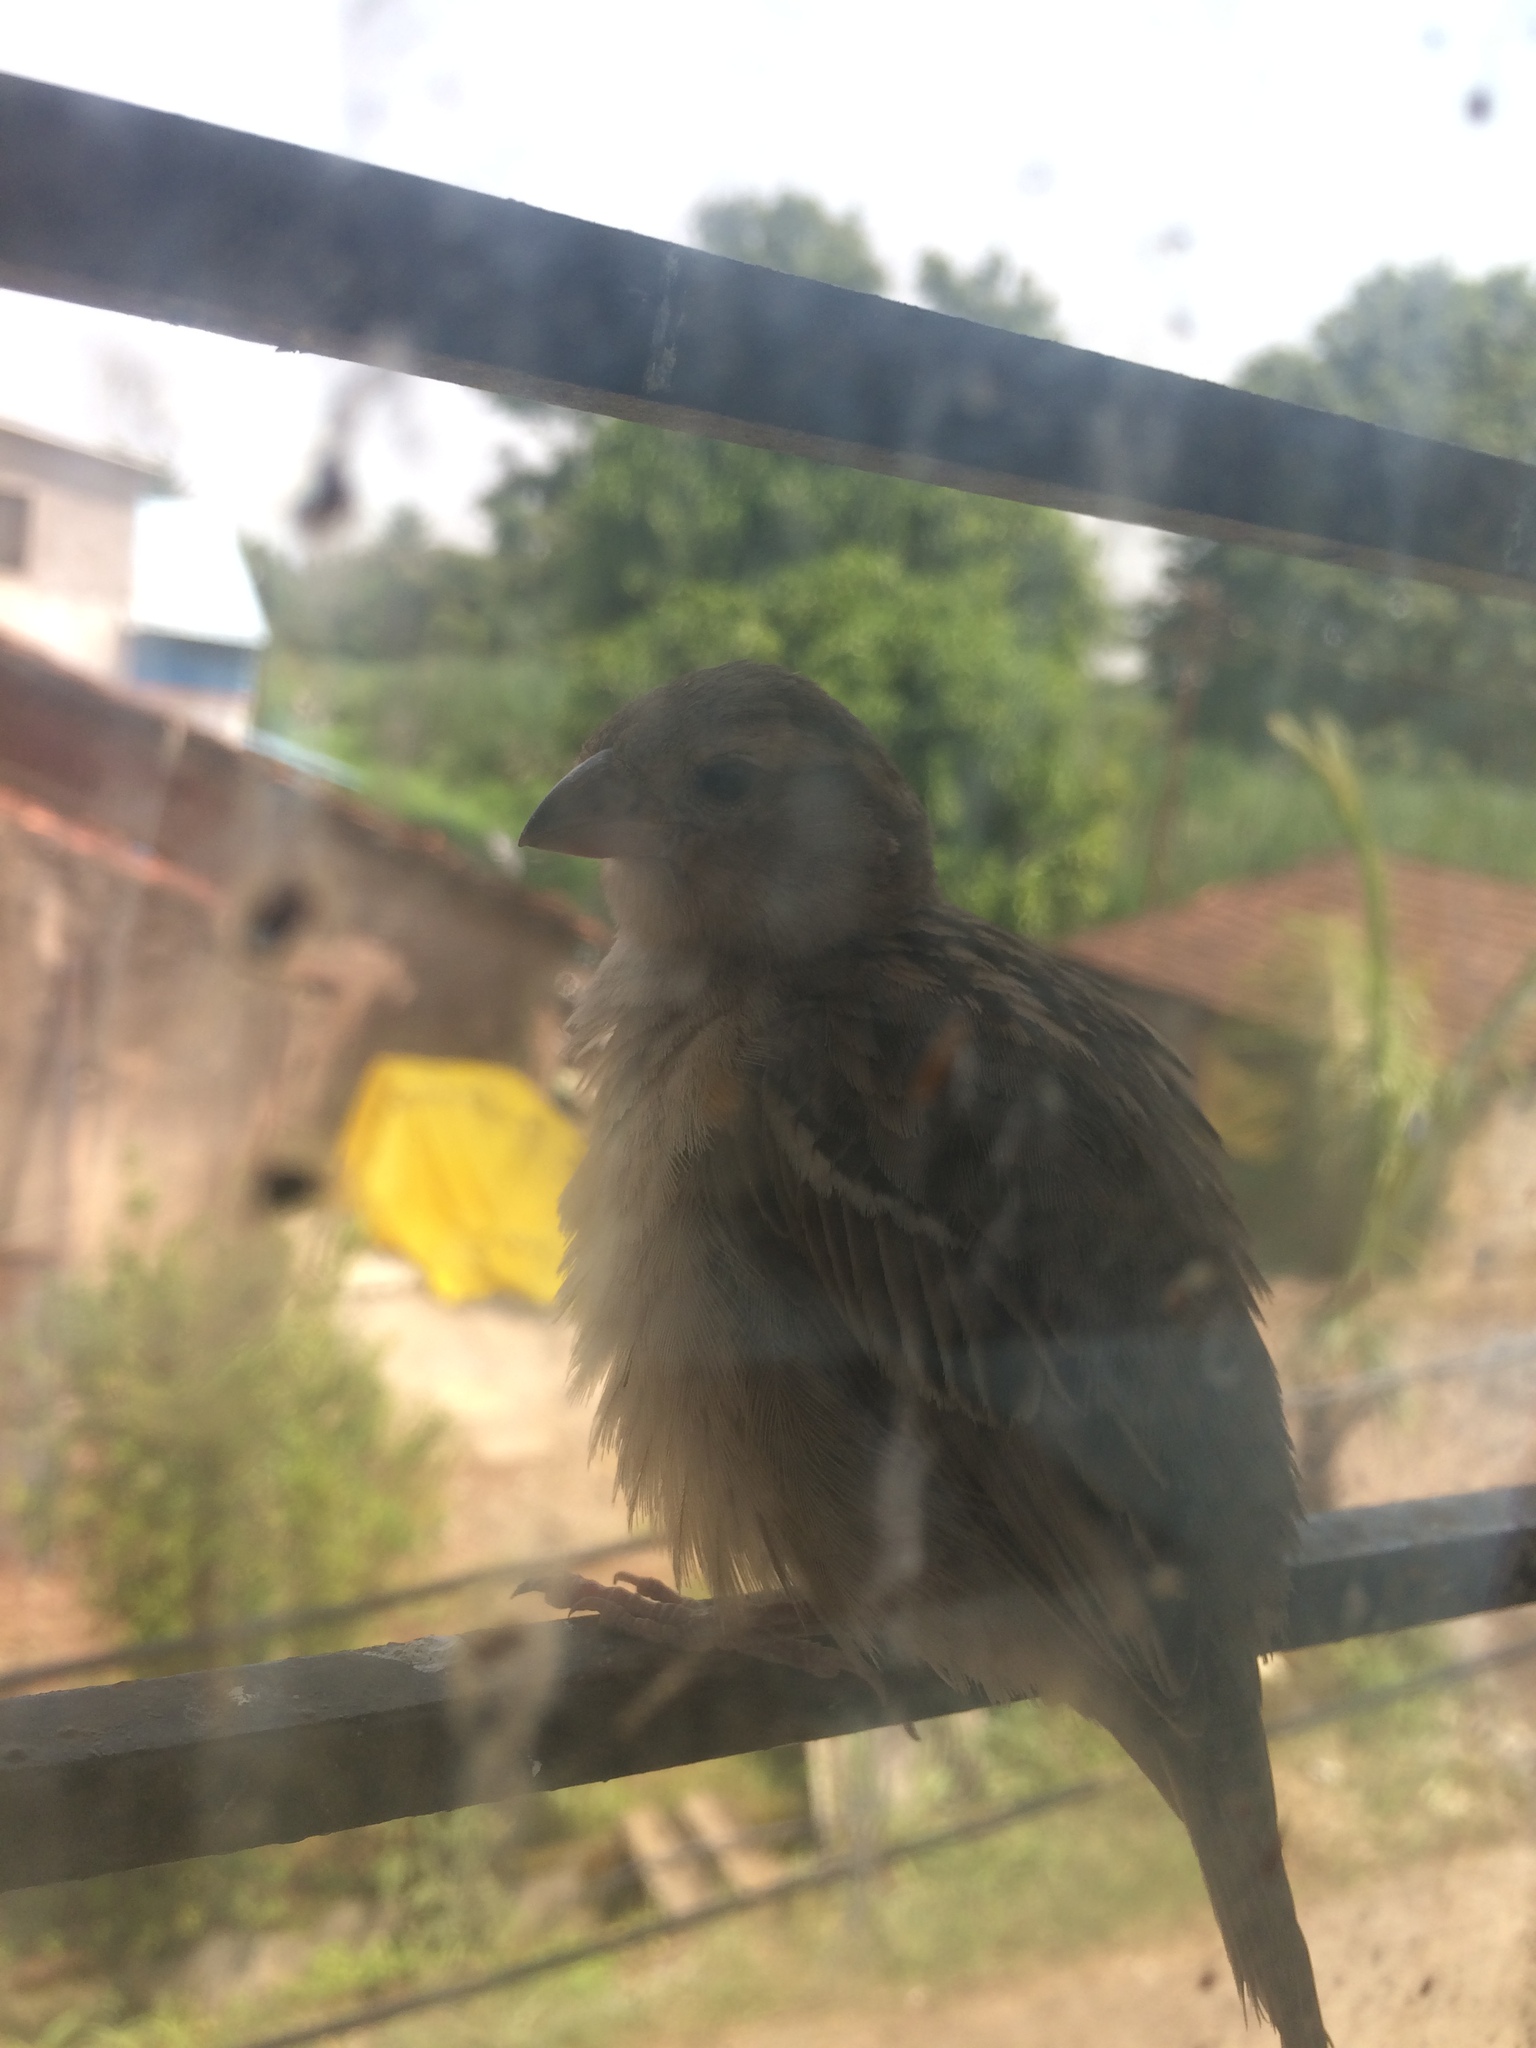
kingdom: Animalia
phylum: Chordata
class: Aves
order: Passeriformes
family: Passeridae
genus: Passer
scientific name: Passer domesticus
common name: House sparrow
